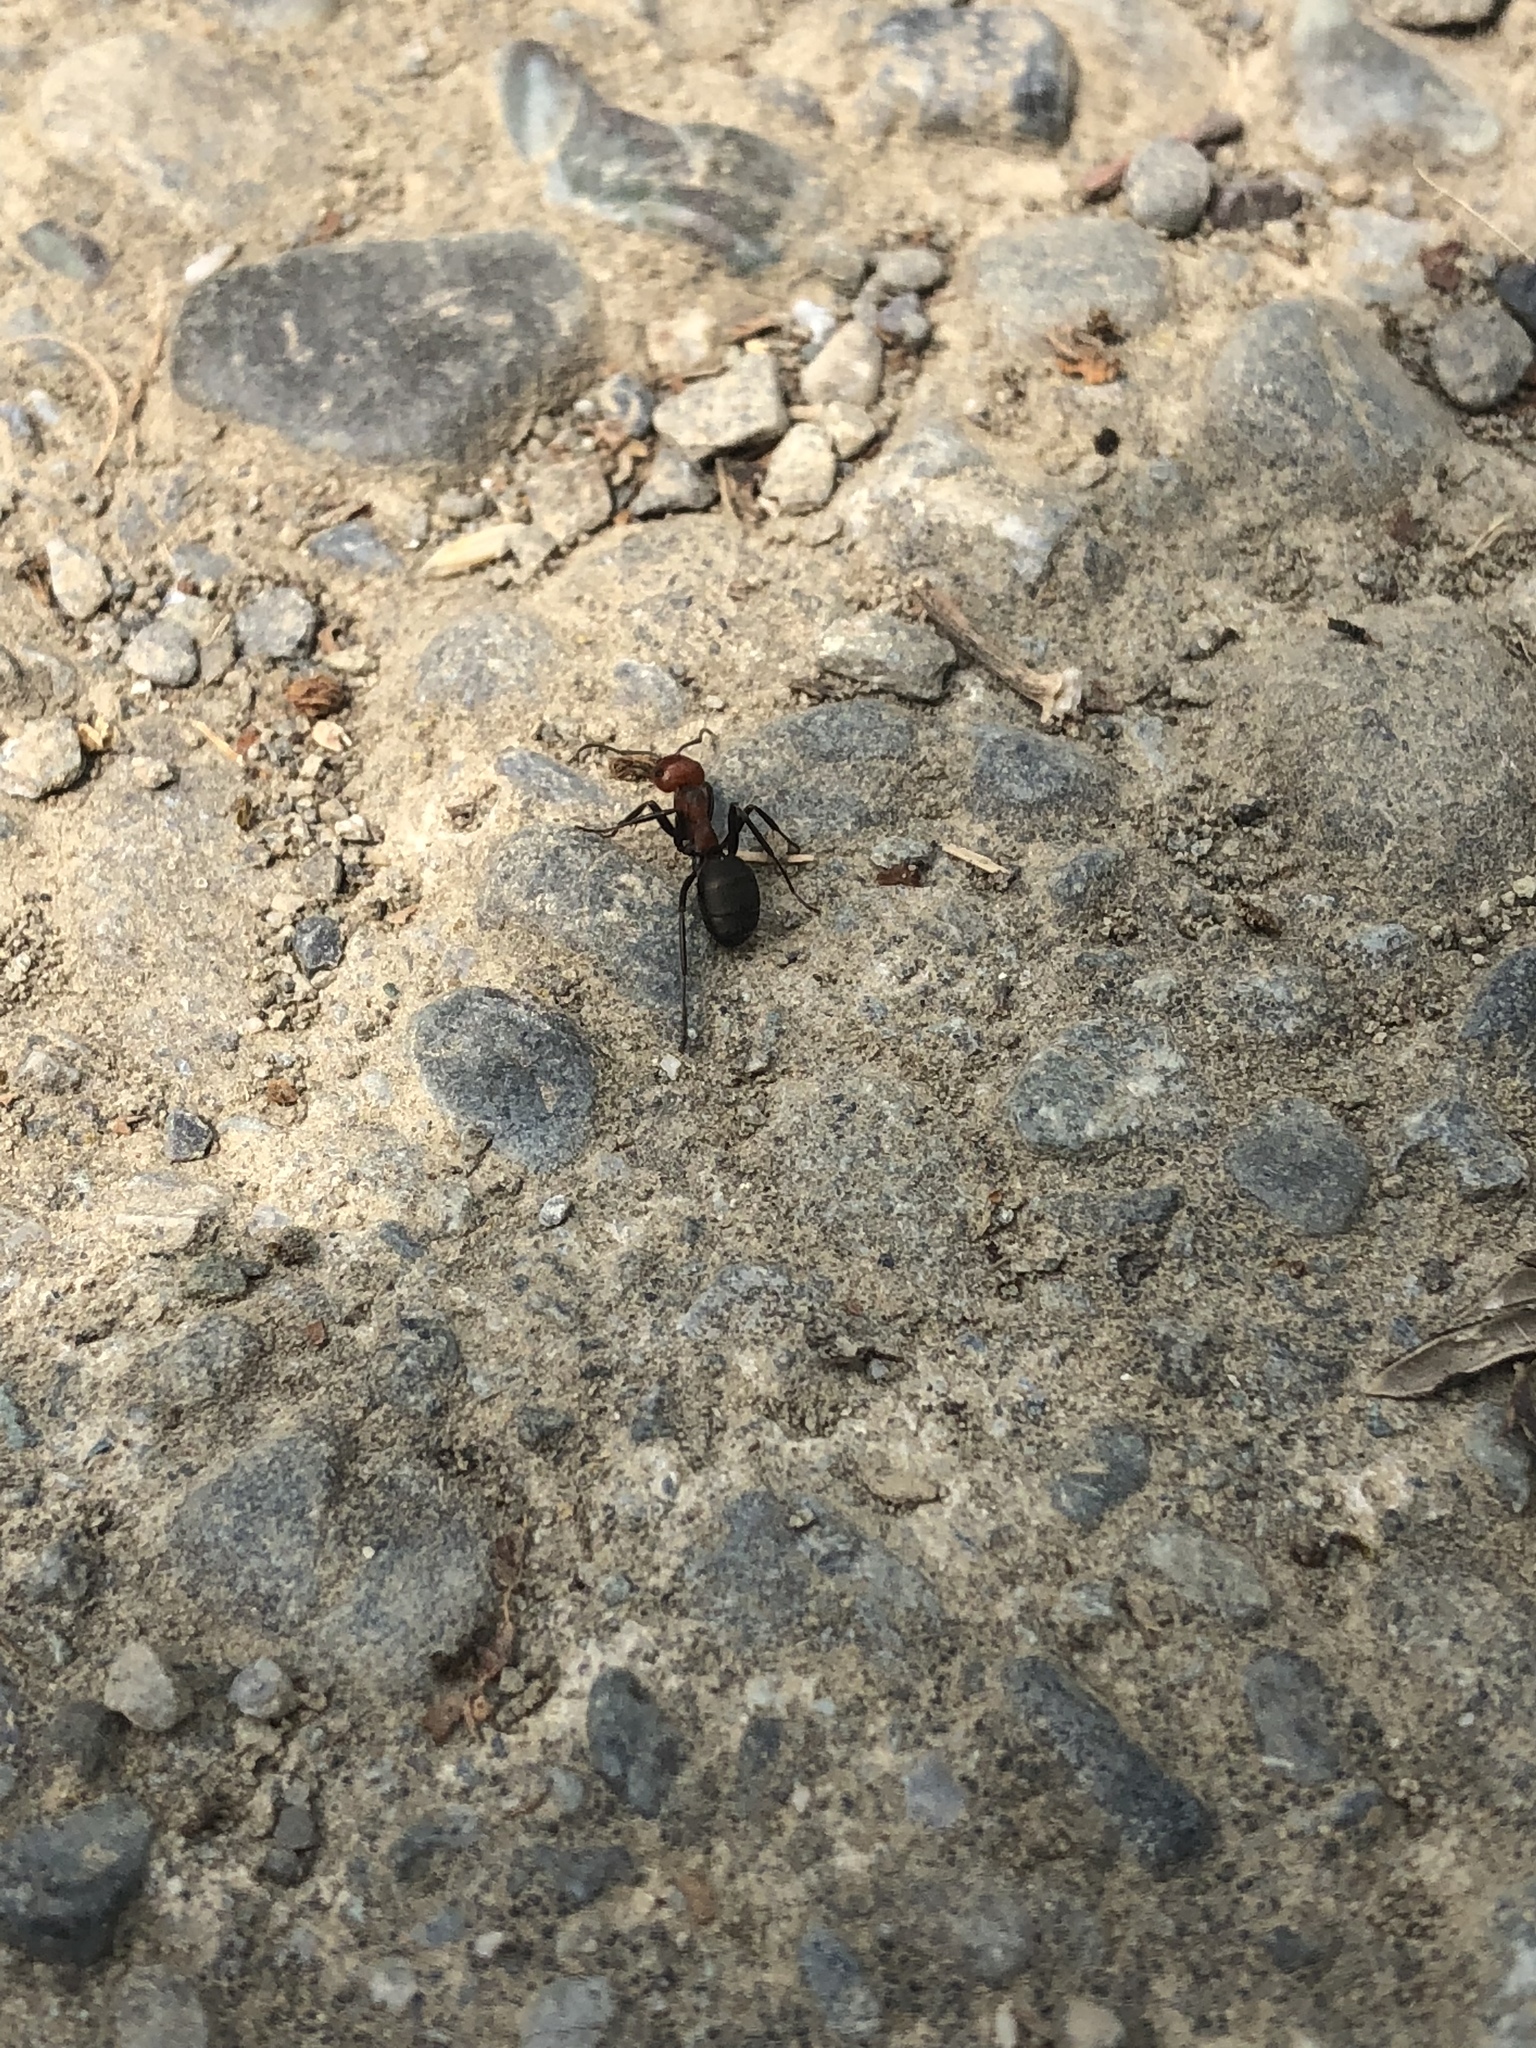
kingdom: Animalia
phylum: Arthropoda
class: Insecta
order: Hymenoptera
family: Formicidae
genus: Formica
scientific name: Formica obscuripes
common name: Western thatching ant
